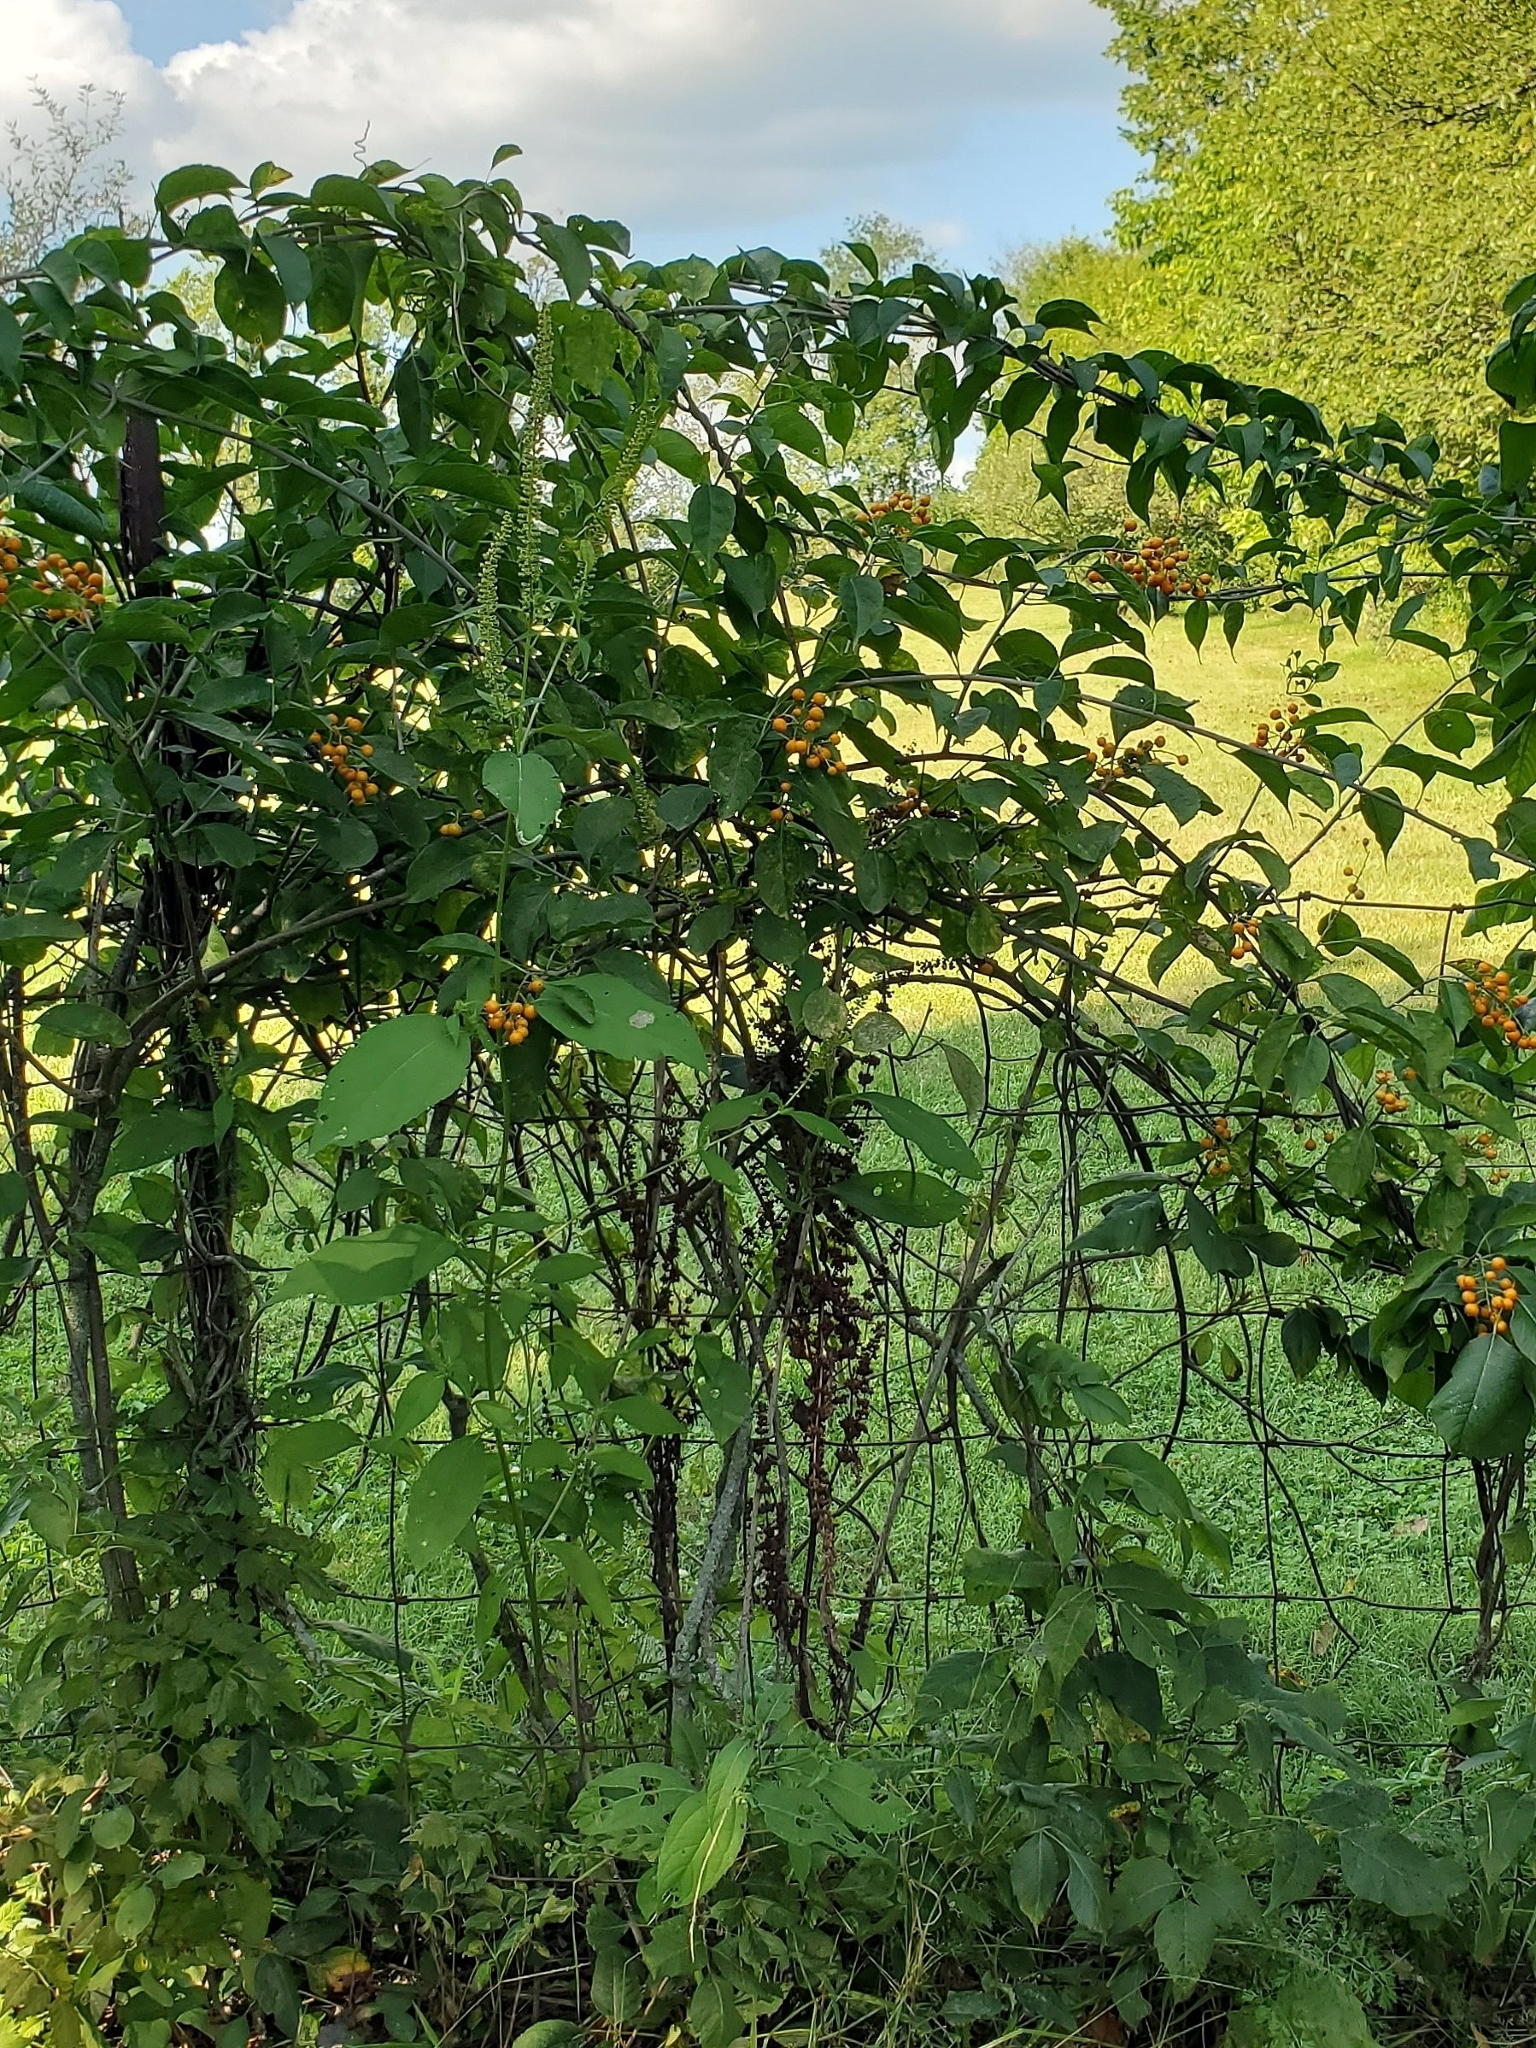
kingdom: Plantae
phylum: Tracheophyta
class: Magnoliopsida
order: Celastrales
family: Celastraceae
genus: Celastrus
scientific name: Celastrus scandens
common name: American bittersweet
